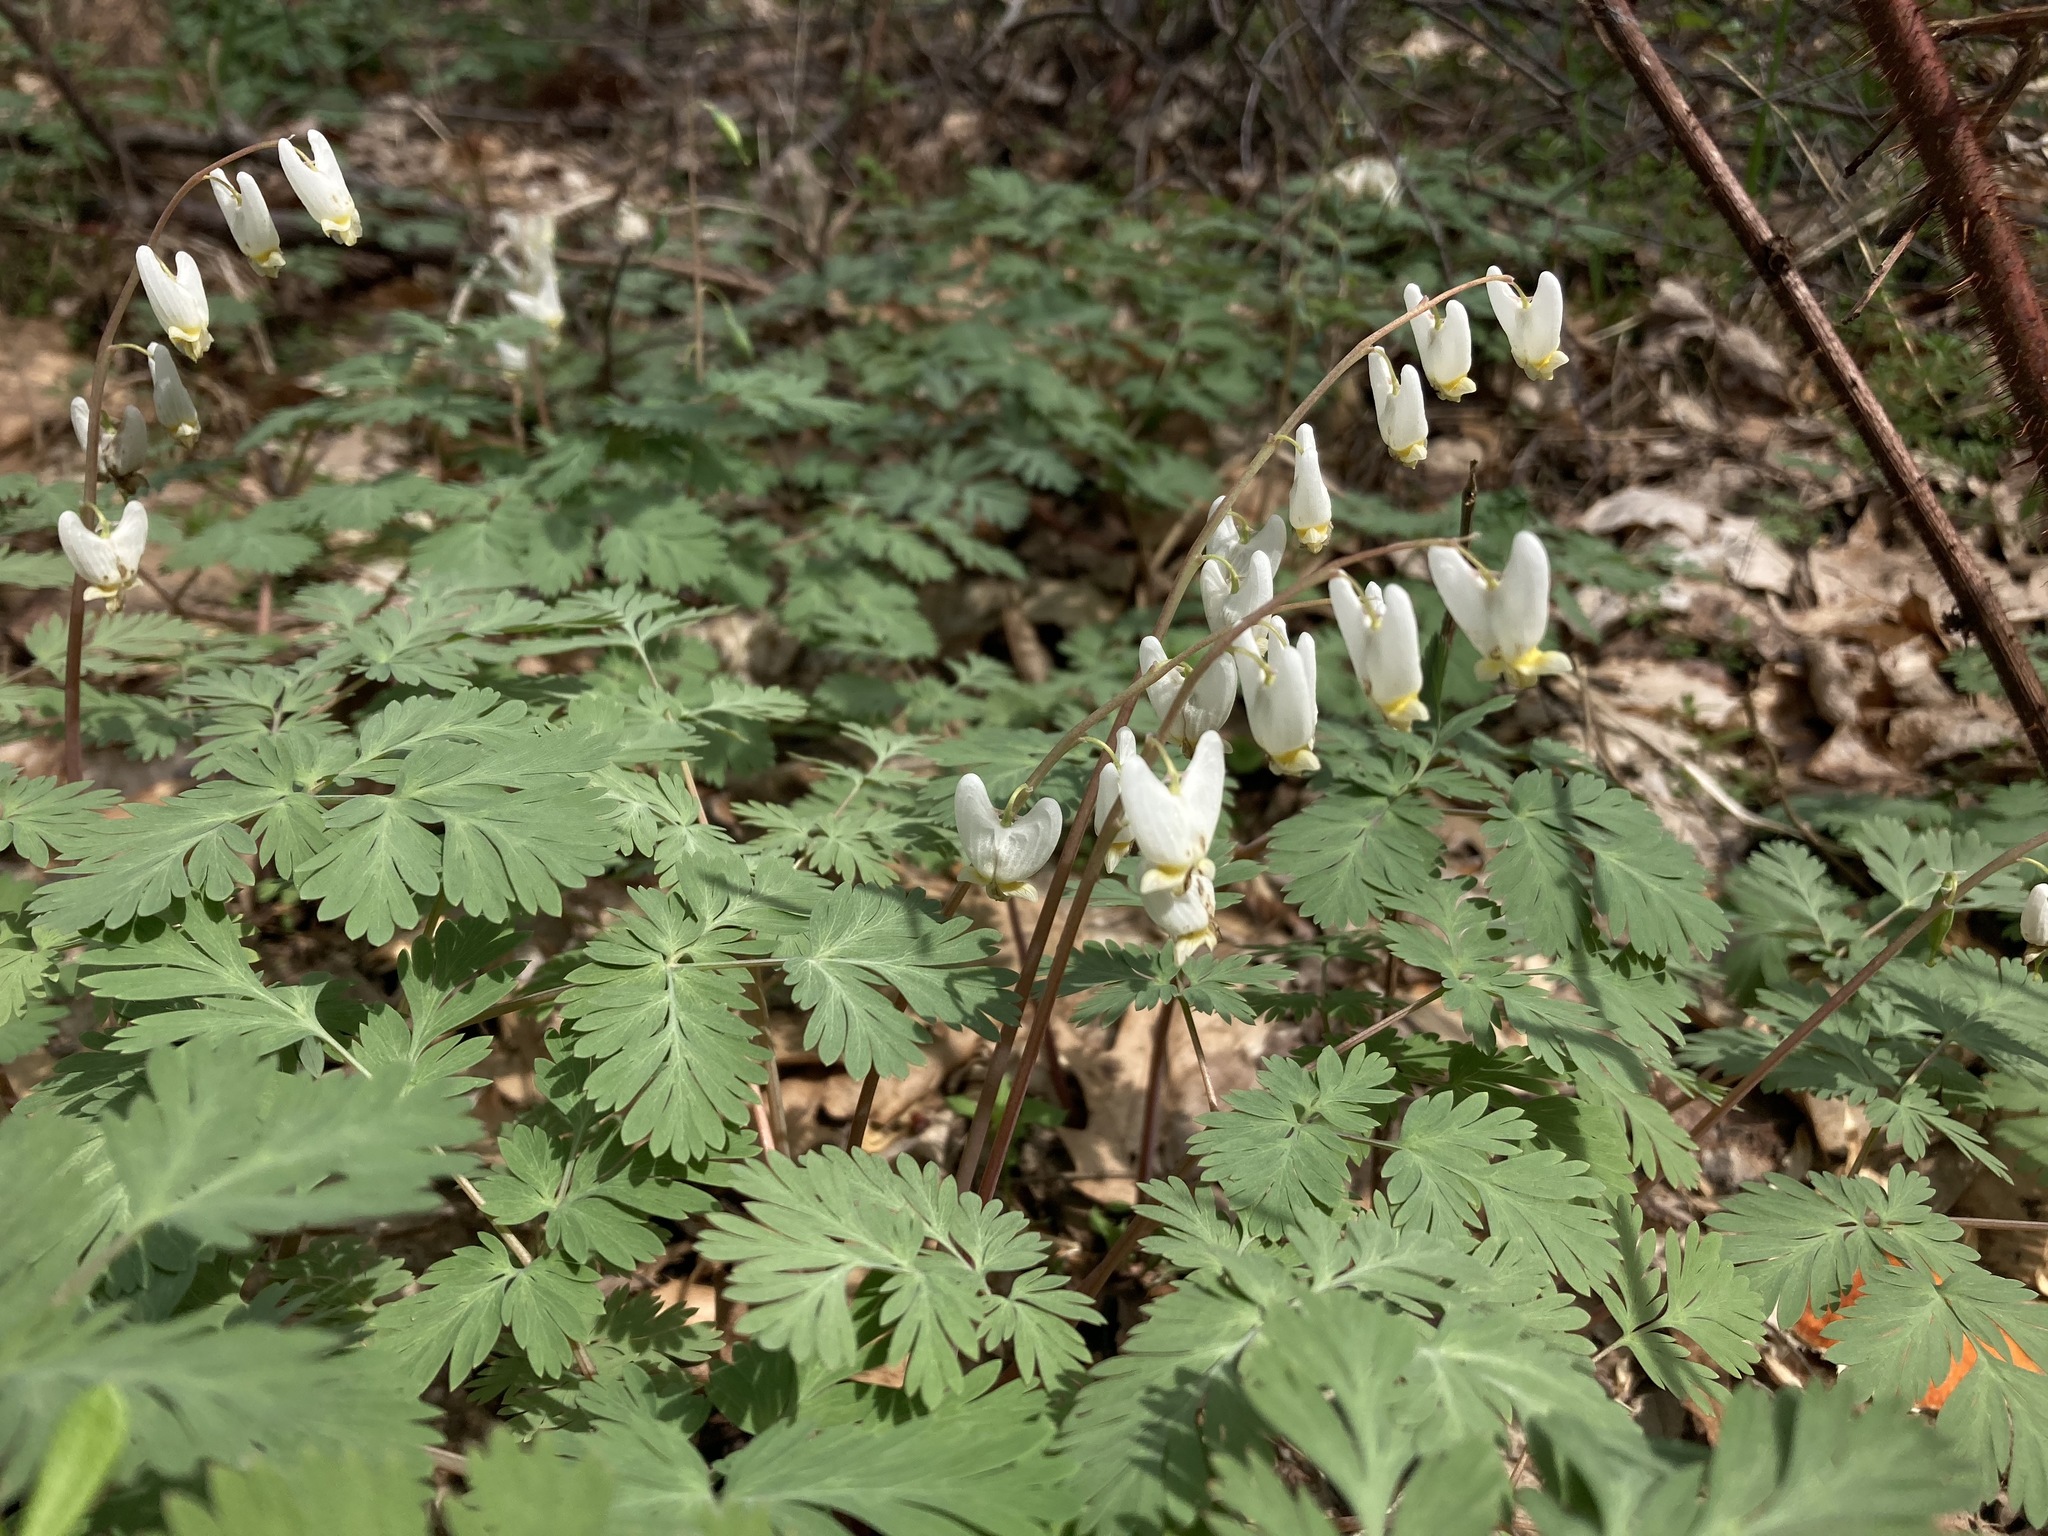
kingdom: Plantae
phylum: Tracheophyta
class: Magnoliopsida
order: Ranunculales
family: Papaveraceae
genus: Dicentra
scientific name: Dicentra cucullaria
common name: Dutchman's breeches
